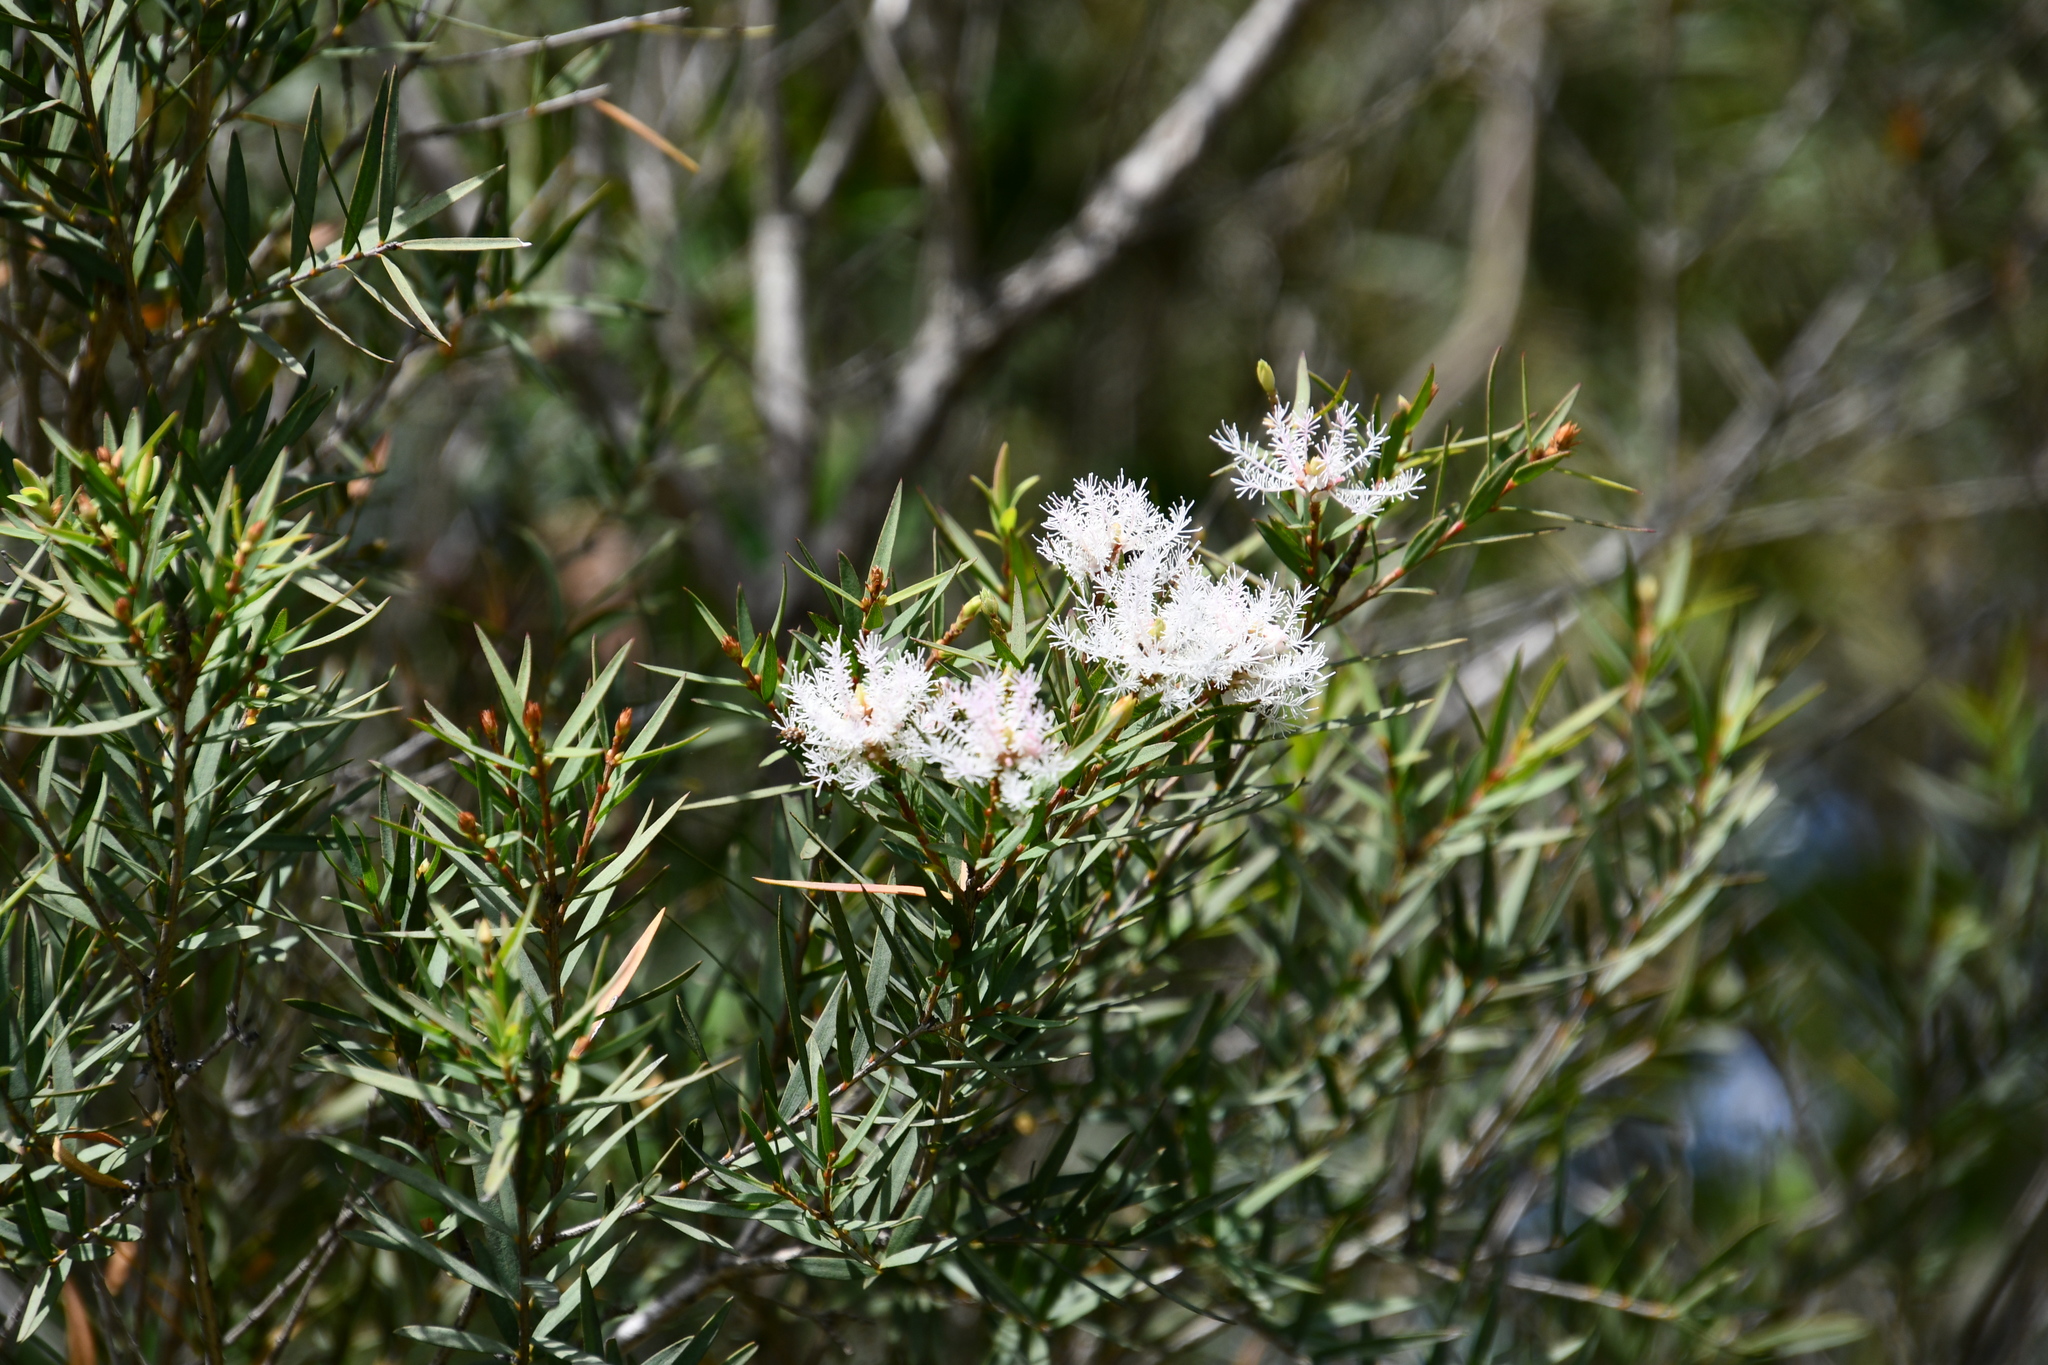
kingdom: Plantae
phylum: Tracheophyta
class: Magnoliopsida
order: Myrtales
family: Myrtaceae
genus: Melaleuca
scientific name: Melaleuca linariifolia
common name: Cajeput tree
